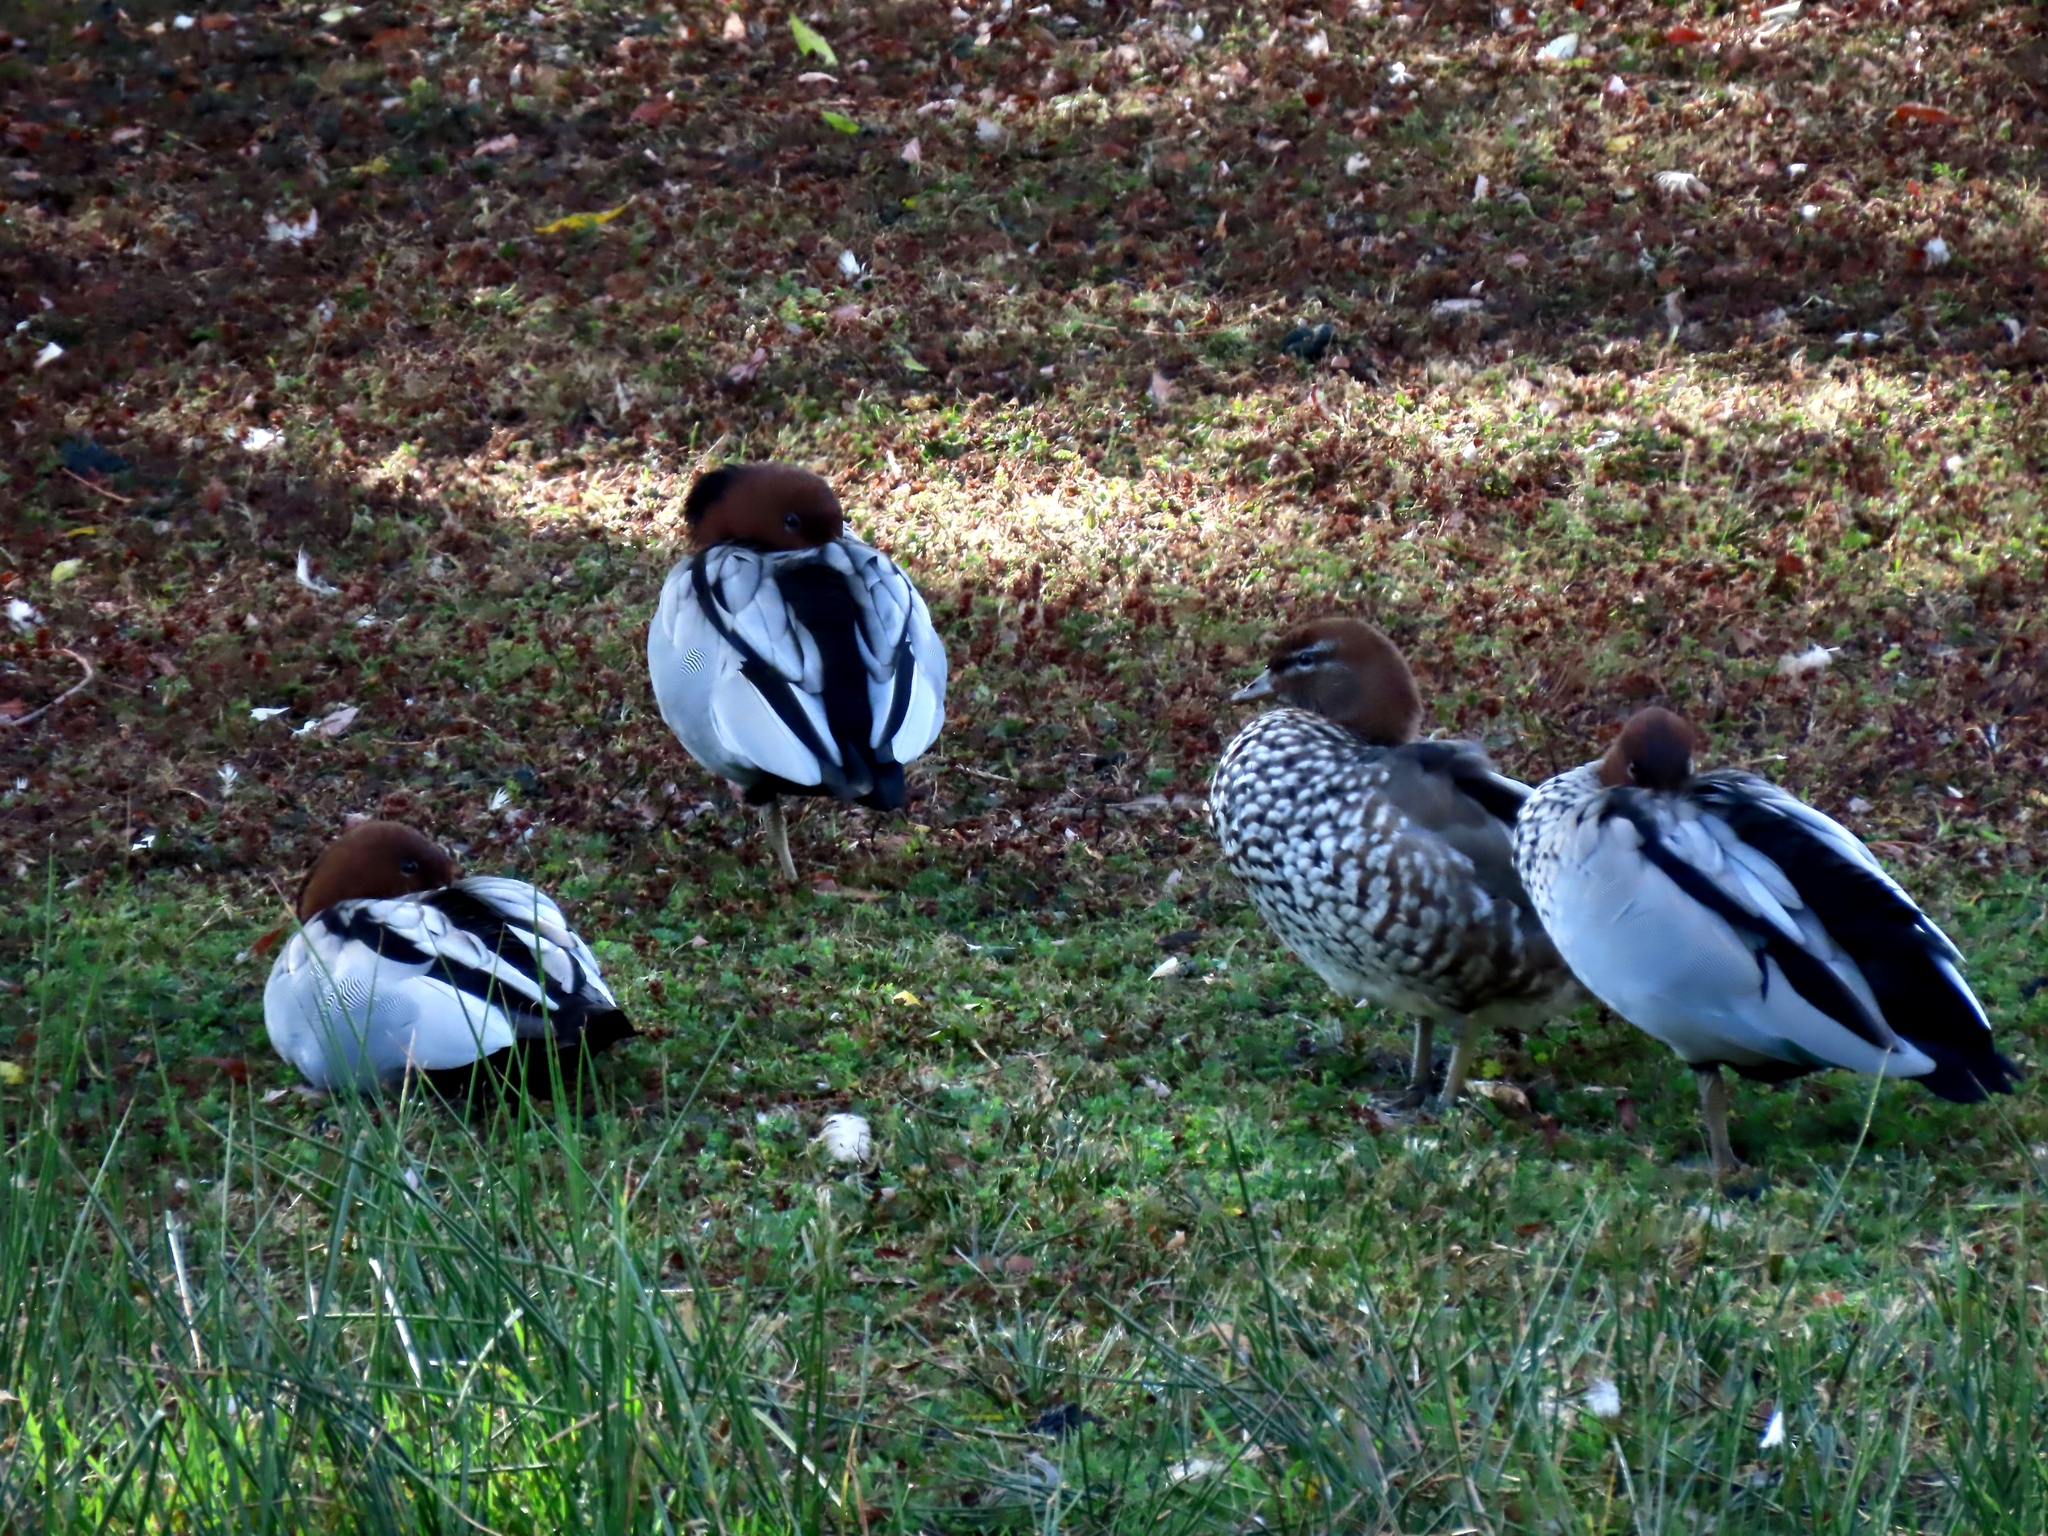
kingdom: Animalia
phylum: Chordata
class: Aves
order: Anseriformes
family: Anatidae
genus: Chenonetta
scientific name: Chenonetta jubata
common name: Maned duck
